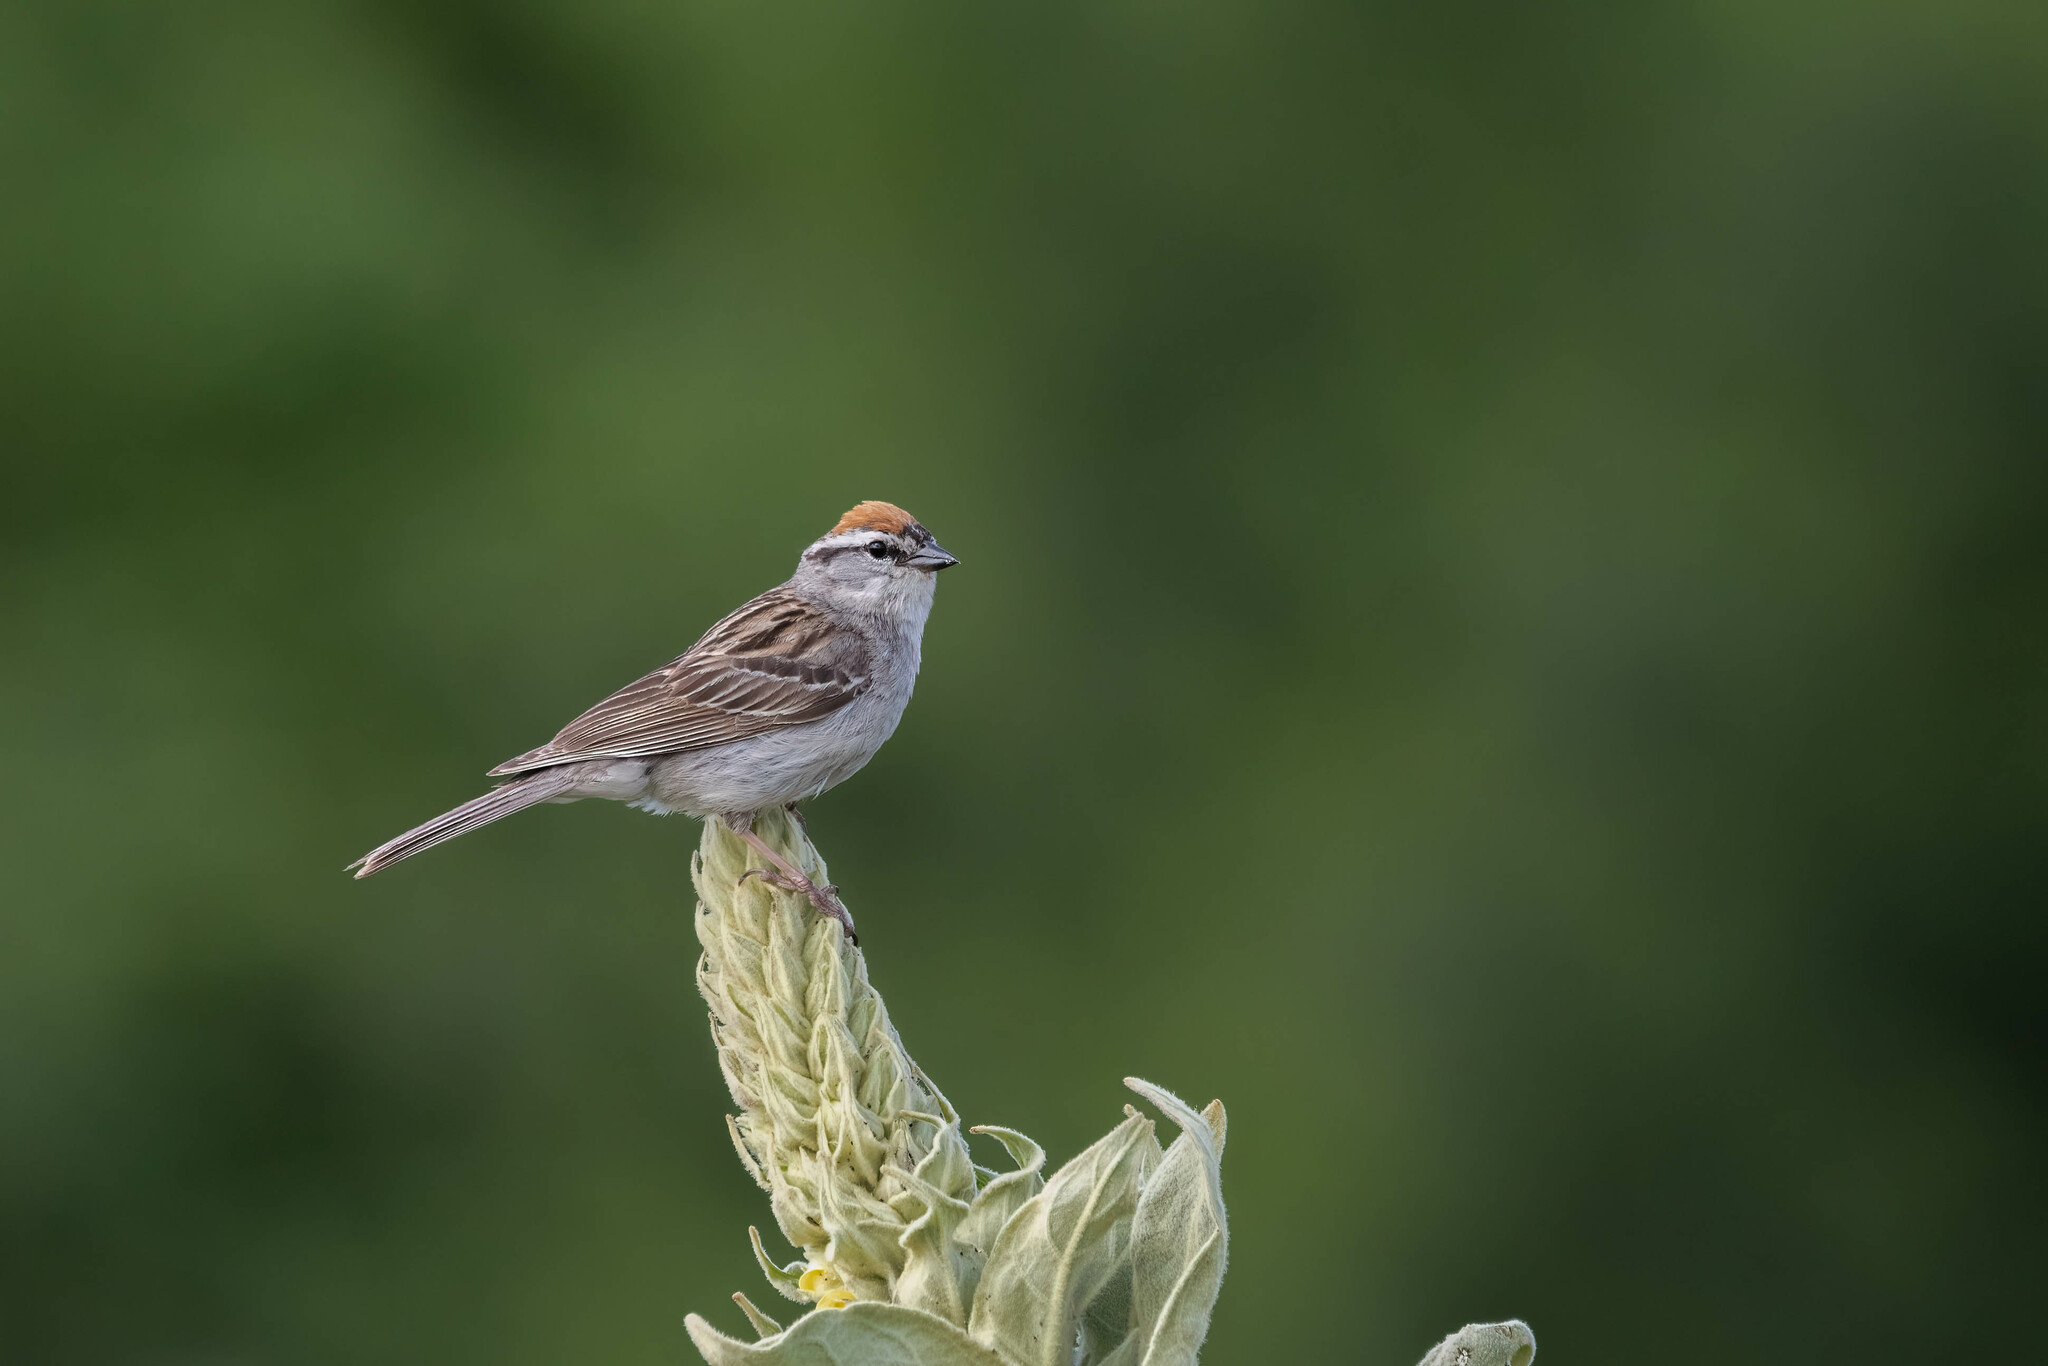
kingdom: Animalia
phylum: Chordata
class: Aves
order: Passeriformes
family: Passerellidae
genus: Spizella
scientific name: Spizella passerina
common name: Chipping sparrow
